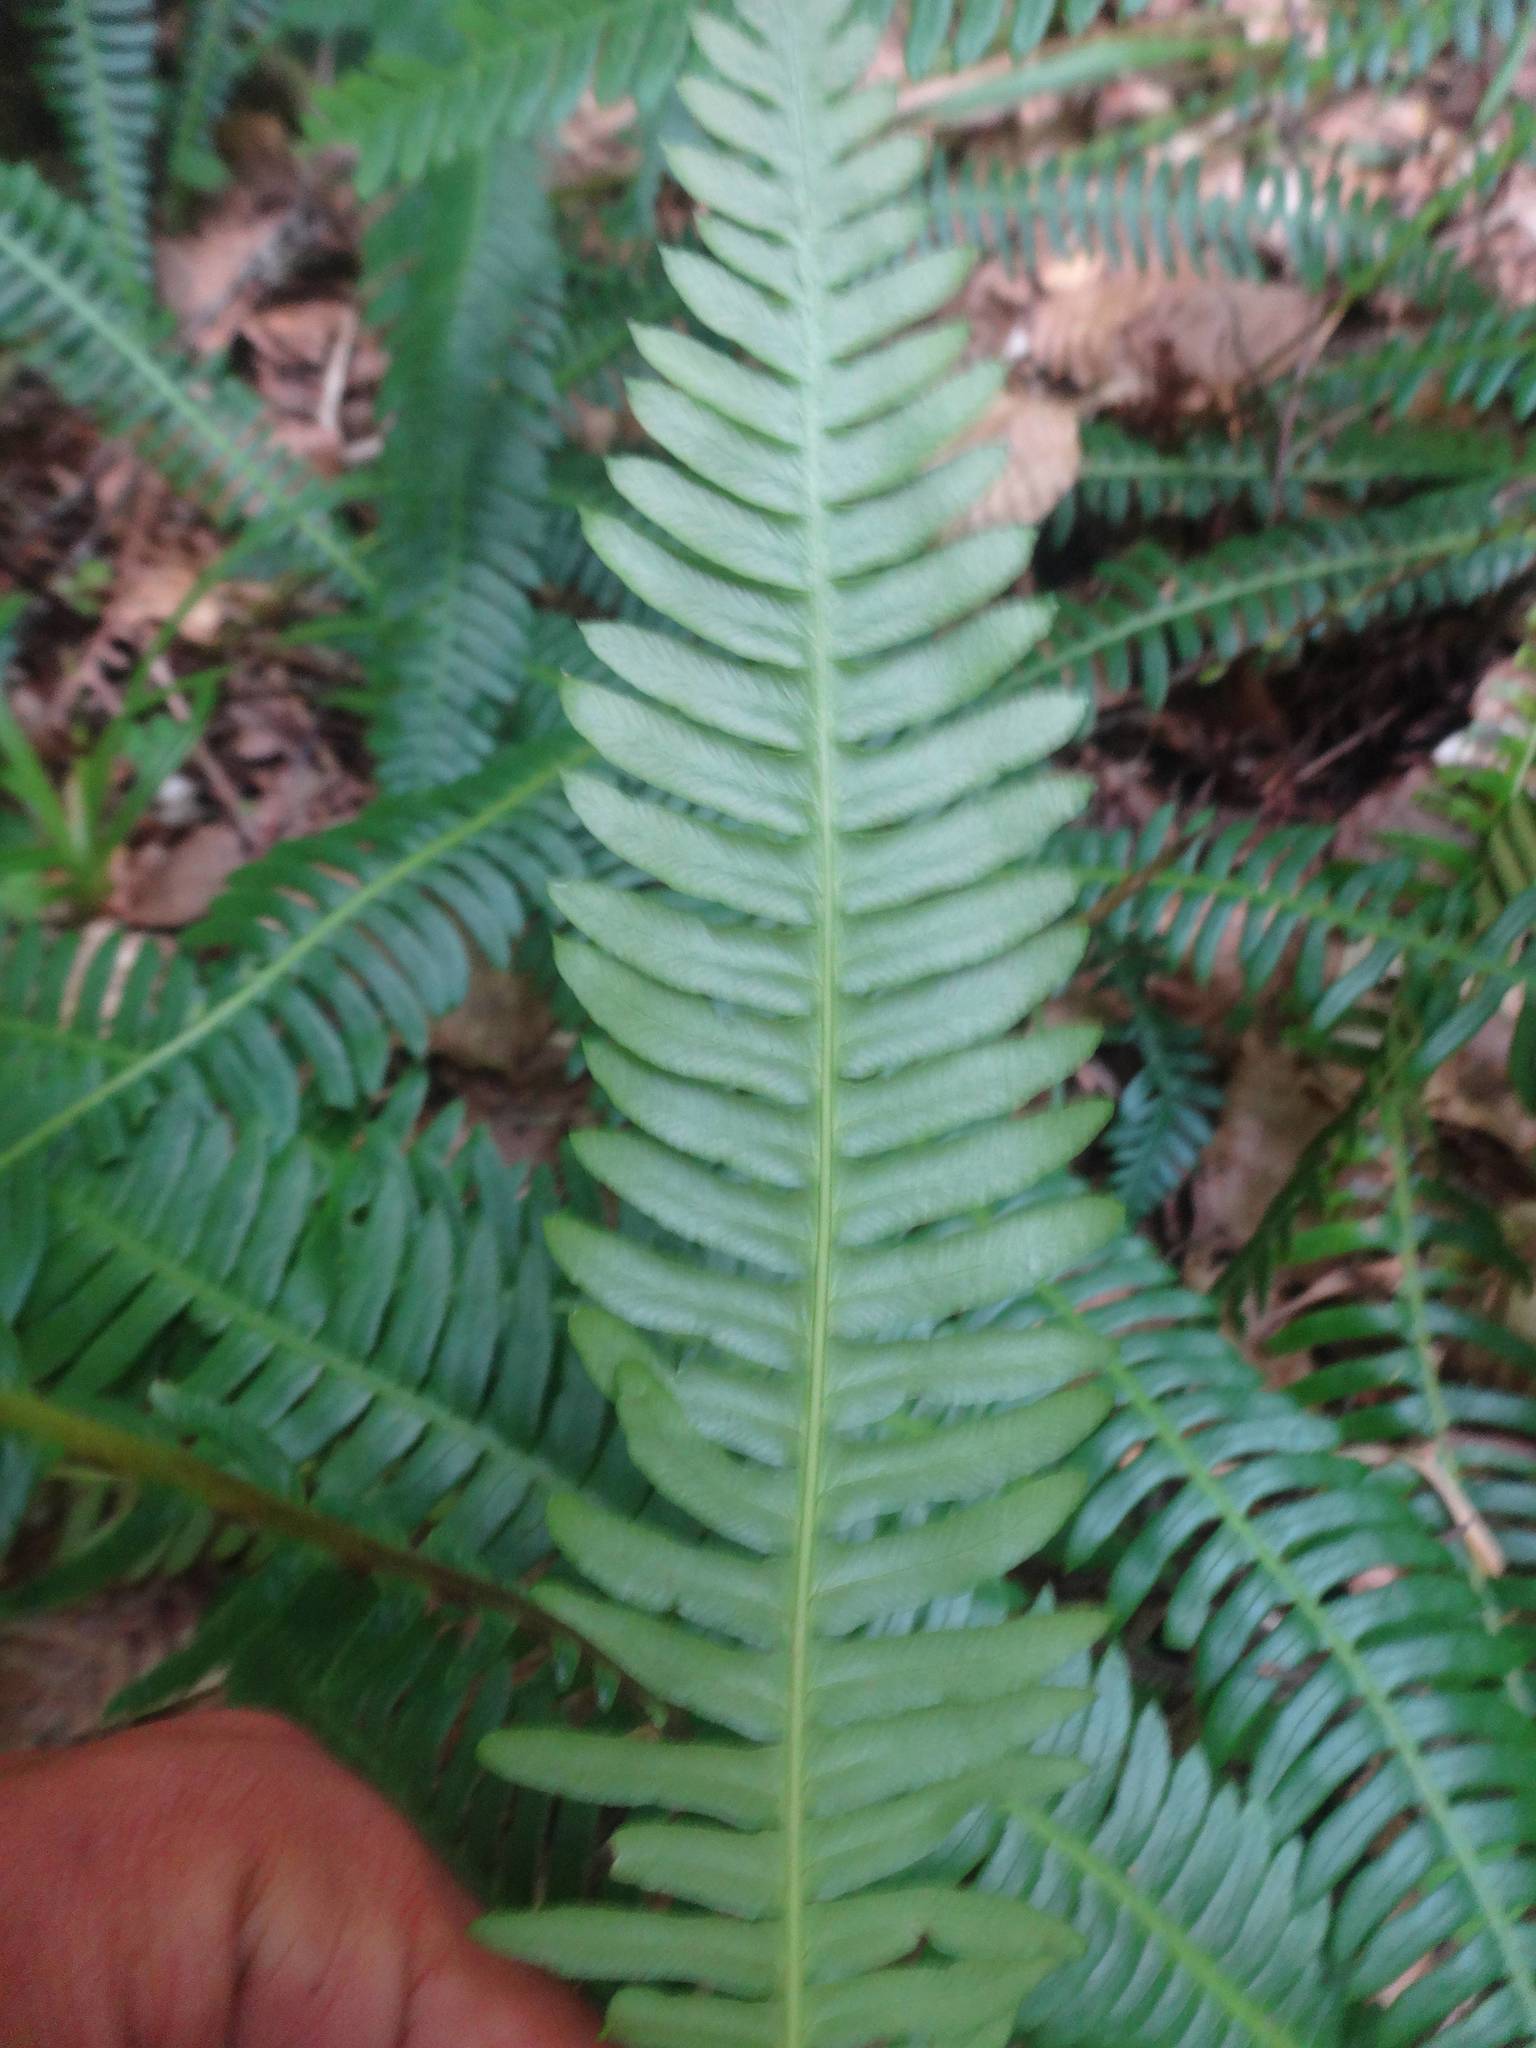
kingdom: Plantae
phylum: Tracheophyta
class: Polypodiopsida
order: Polypodiales
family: Blechnaceae
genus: Struthiopteris
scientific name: Struthiopteris spicant
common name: Deer fern
